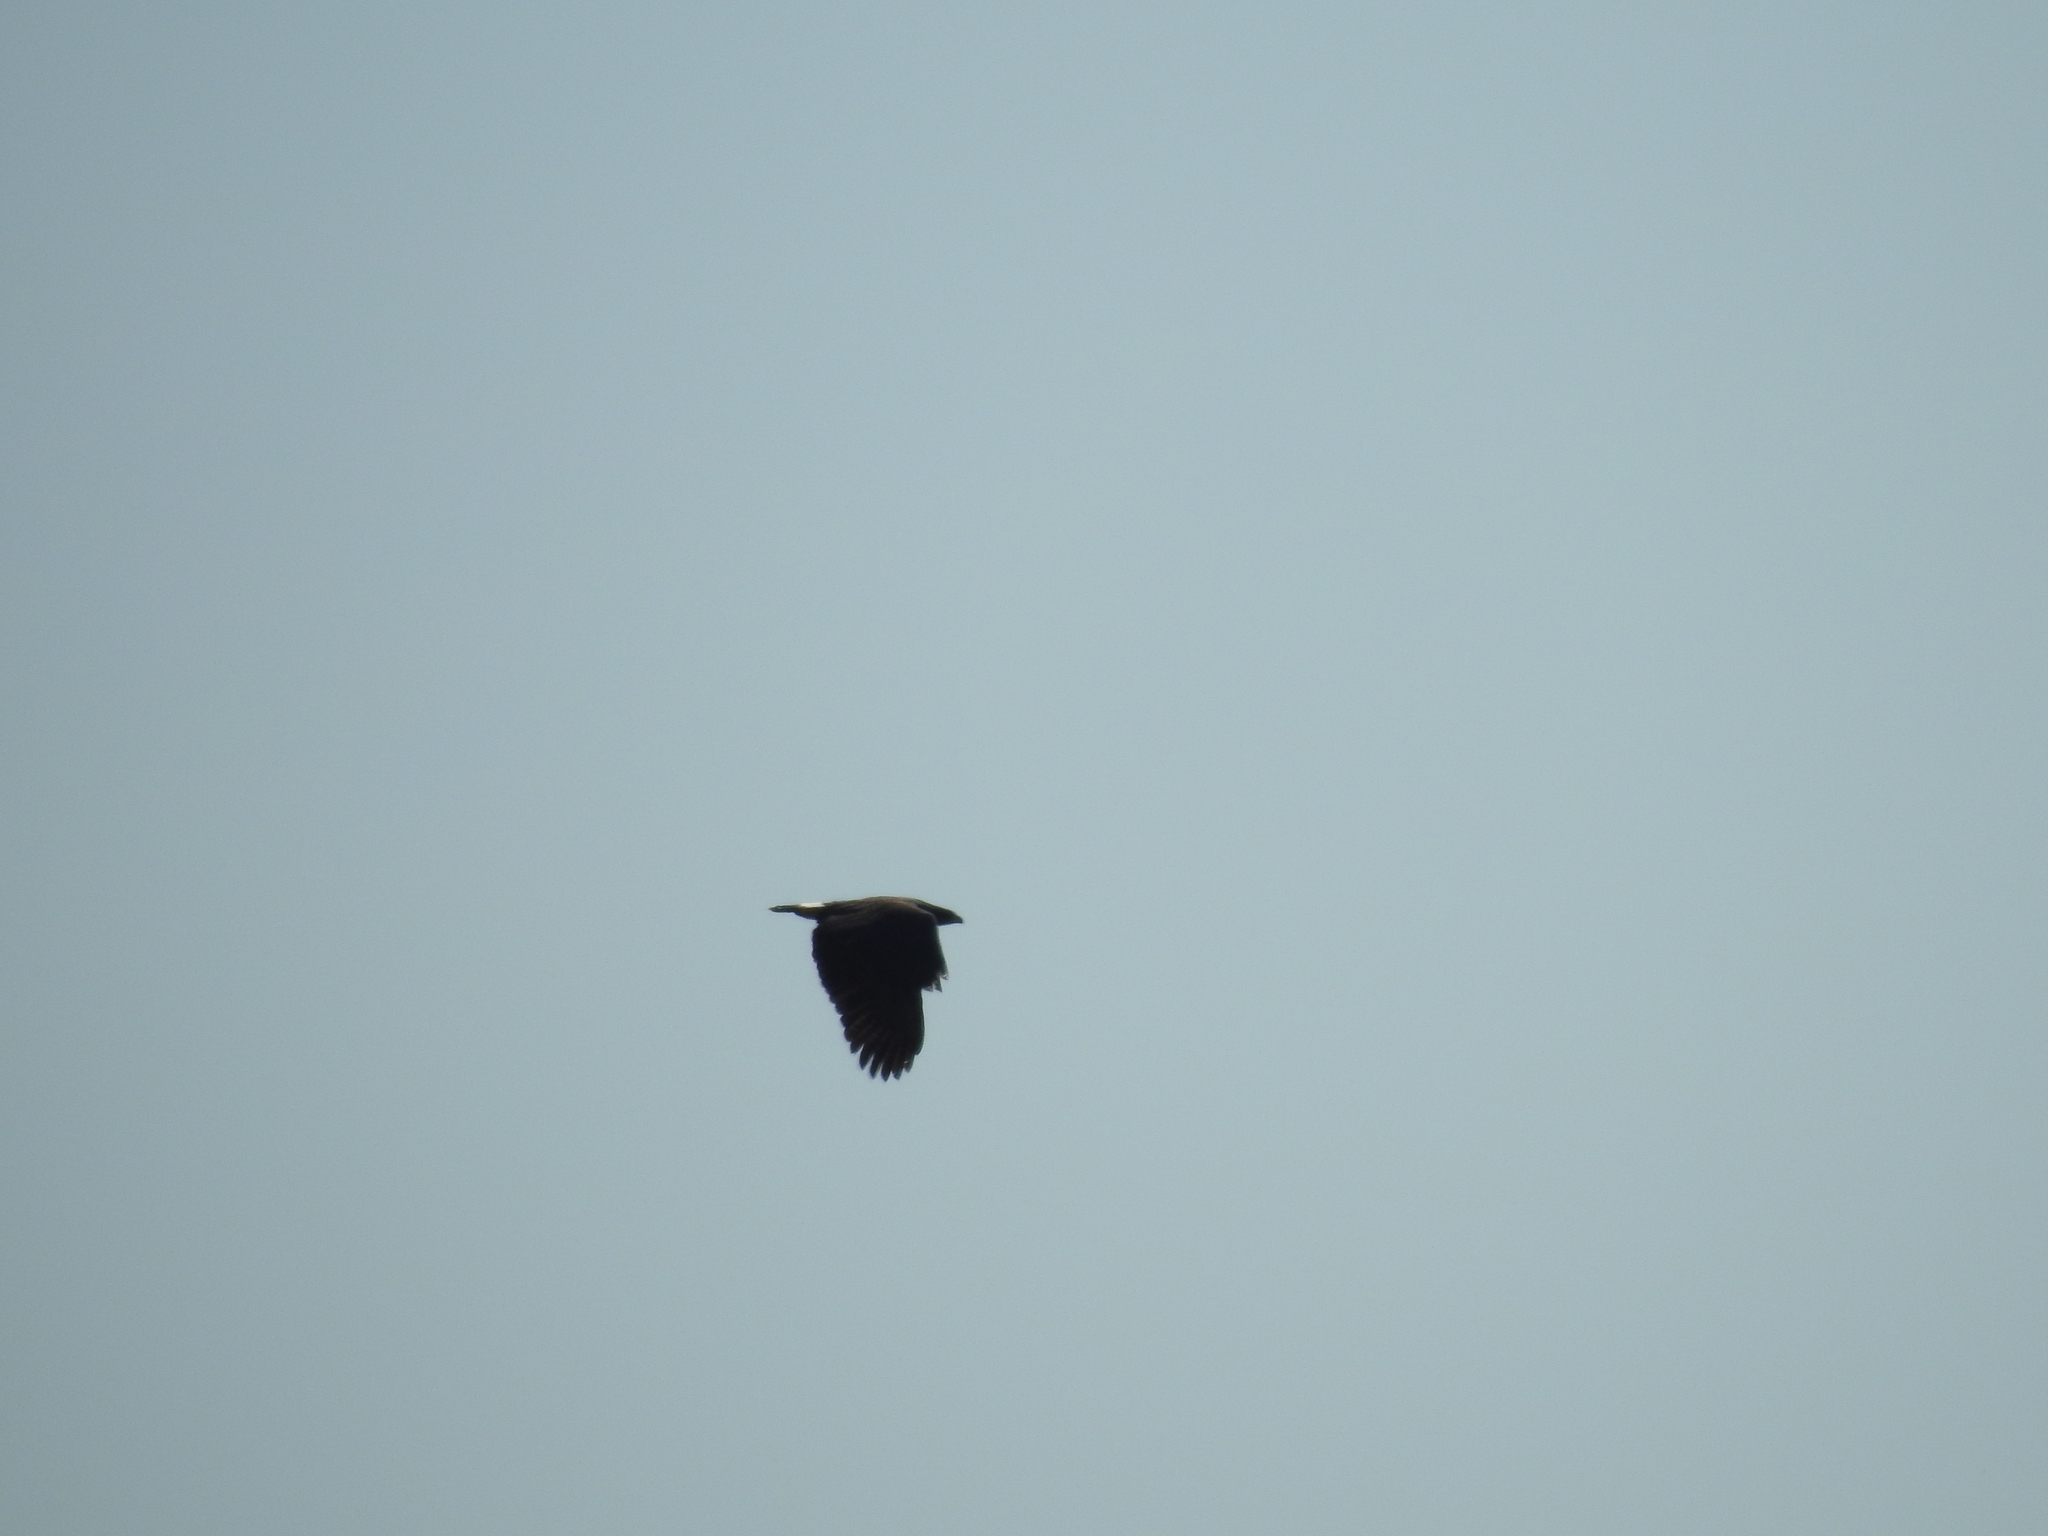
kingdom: Animalia
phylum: Chordata
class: Aves
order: Accipitriformes
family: Accipitridae
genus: Buteogallus
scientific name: Buteogallus urubitinga
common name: Great black hawk
